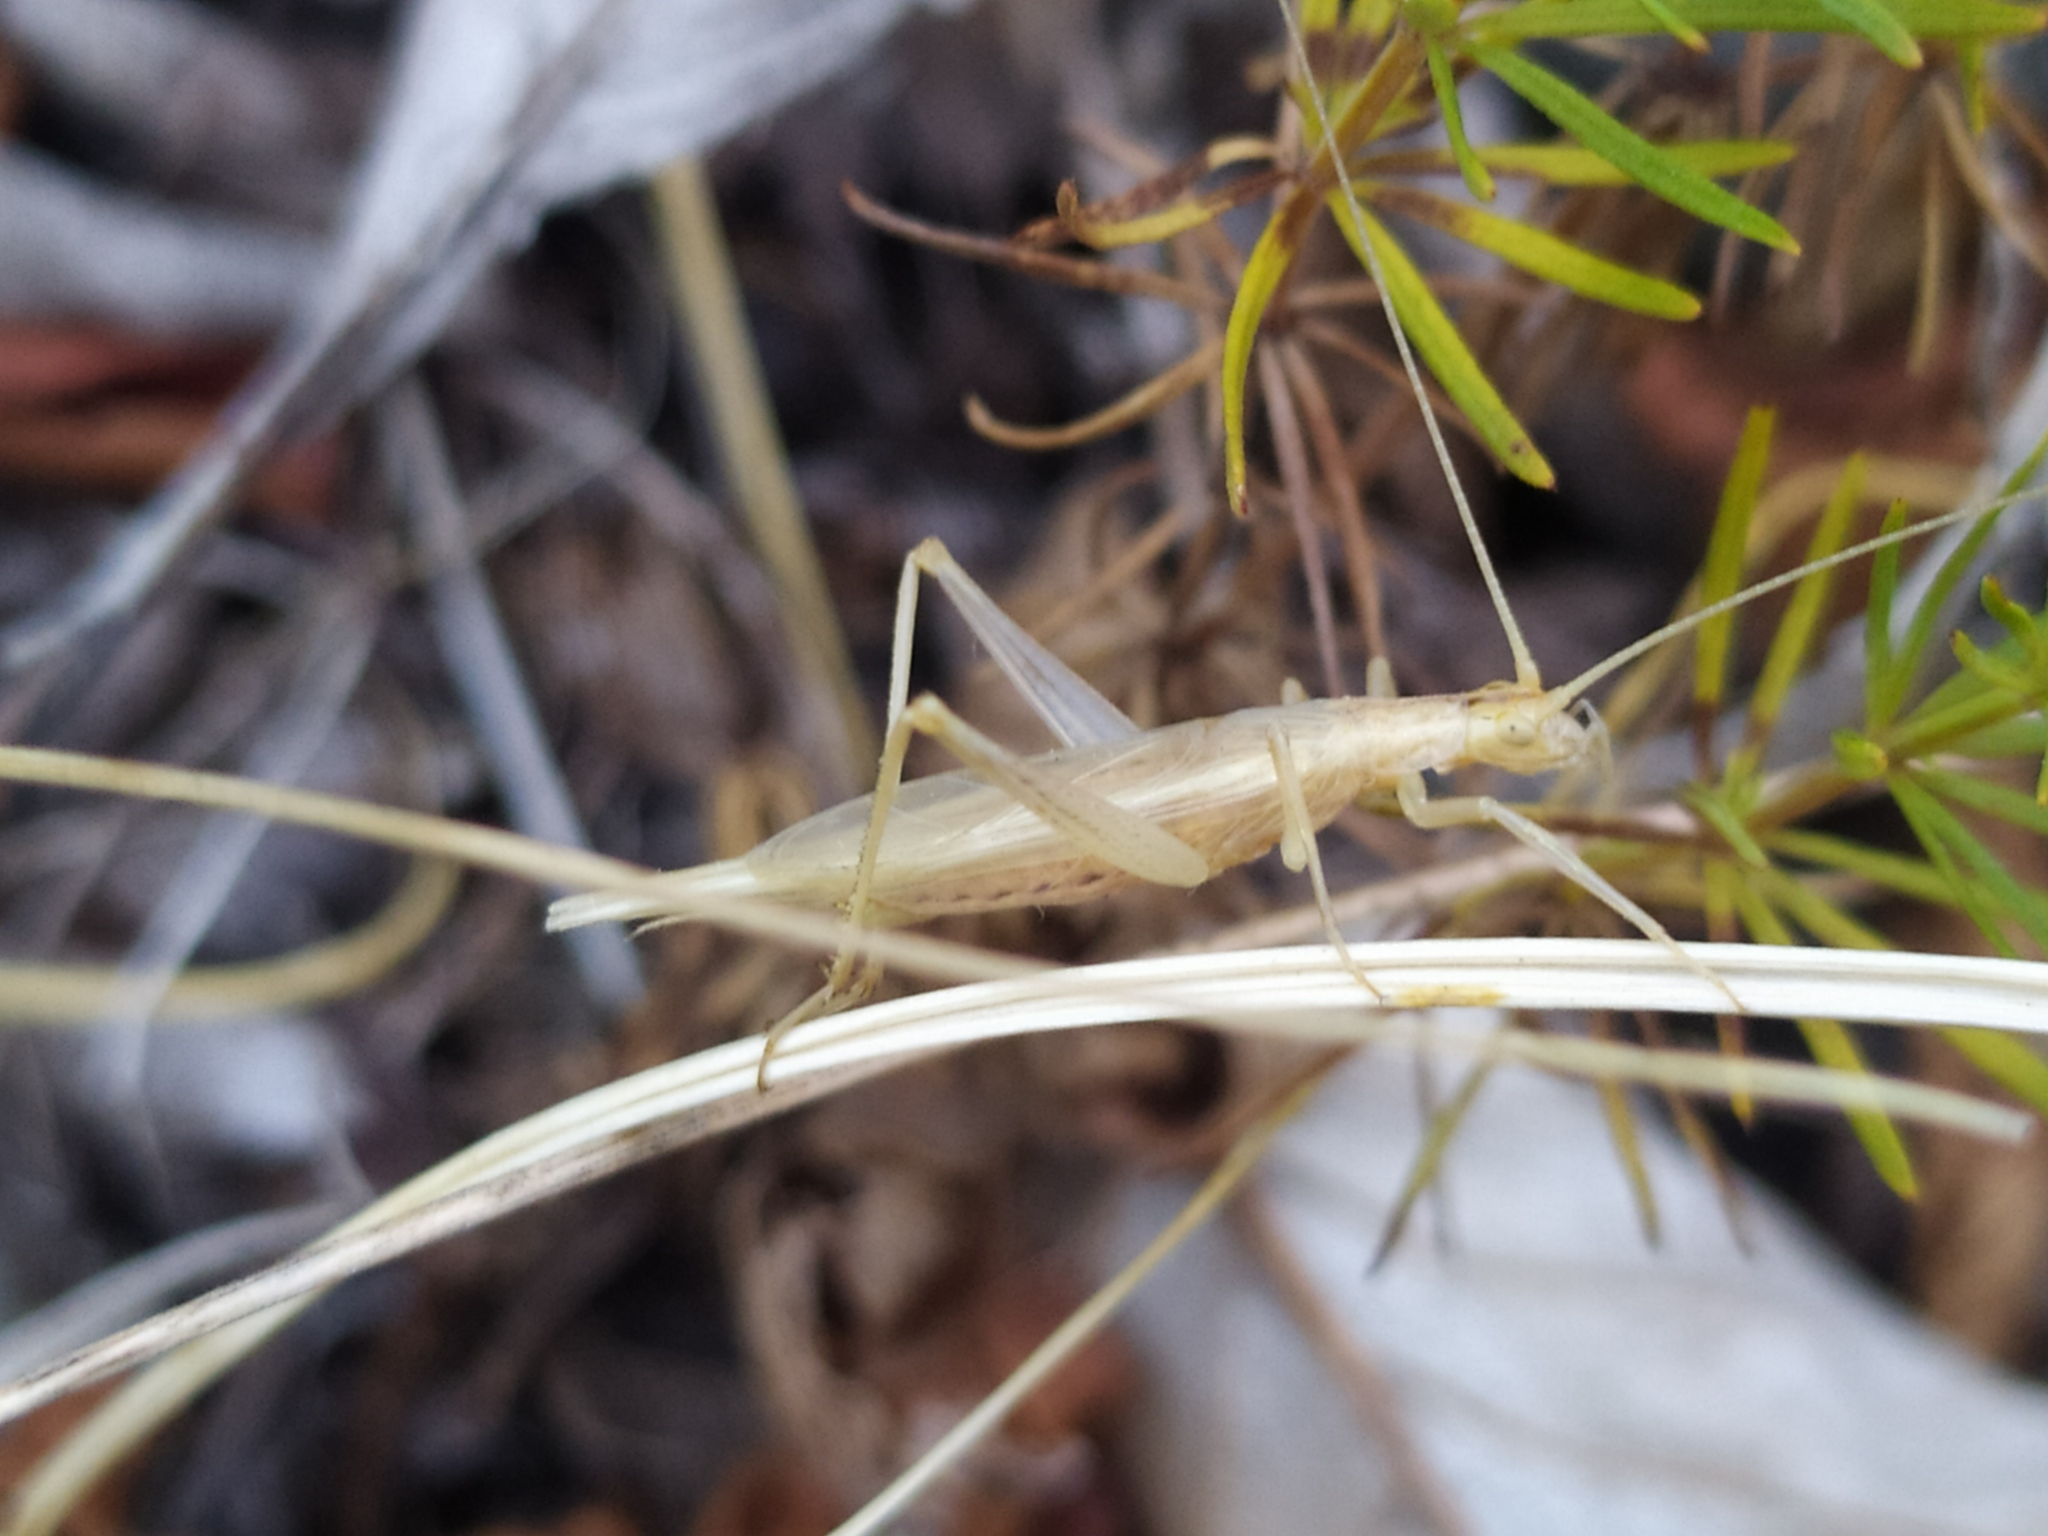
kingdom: Animalia
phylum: Arthropoda
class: Insecta
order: Orthoptera
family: Gryllidae
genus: Oecanthus
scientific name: Oecanthus pellucens
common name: Tree-cricket
